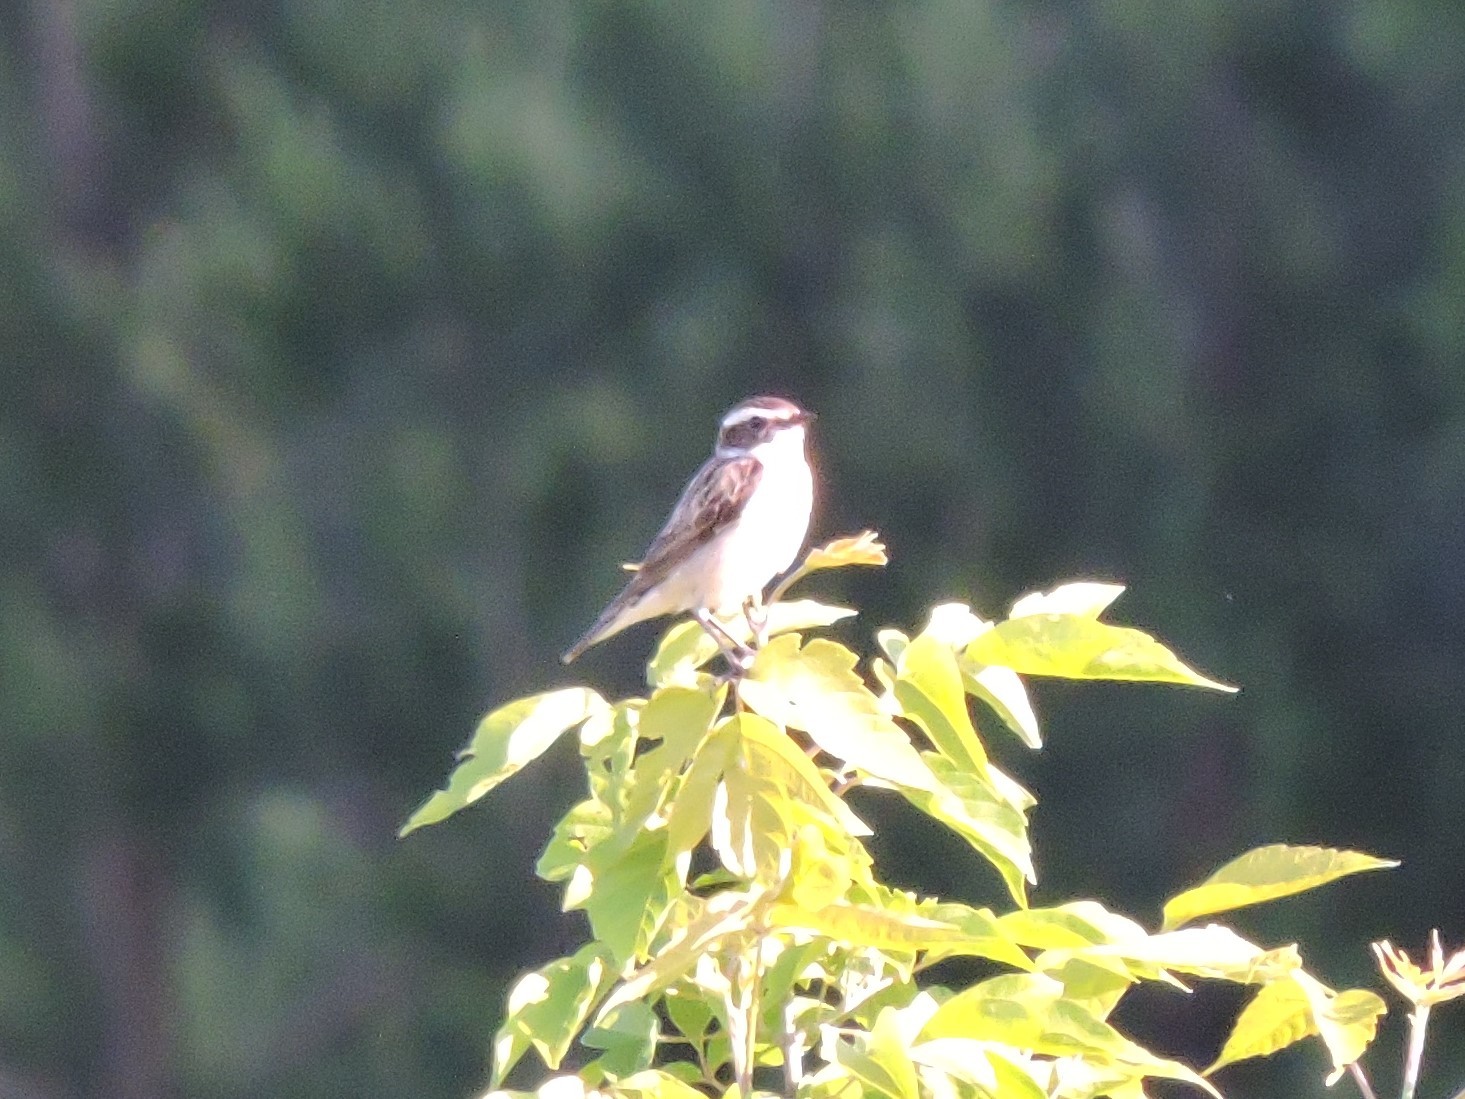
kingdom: Animalia
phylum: Chordata
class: Aves
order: Passeriformes
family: Muscicapidae
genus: Saxicola
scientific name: Saxicola rubetra
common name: Whinchat
